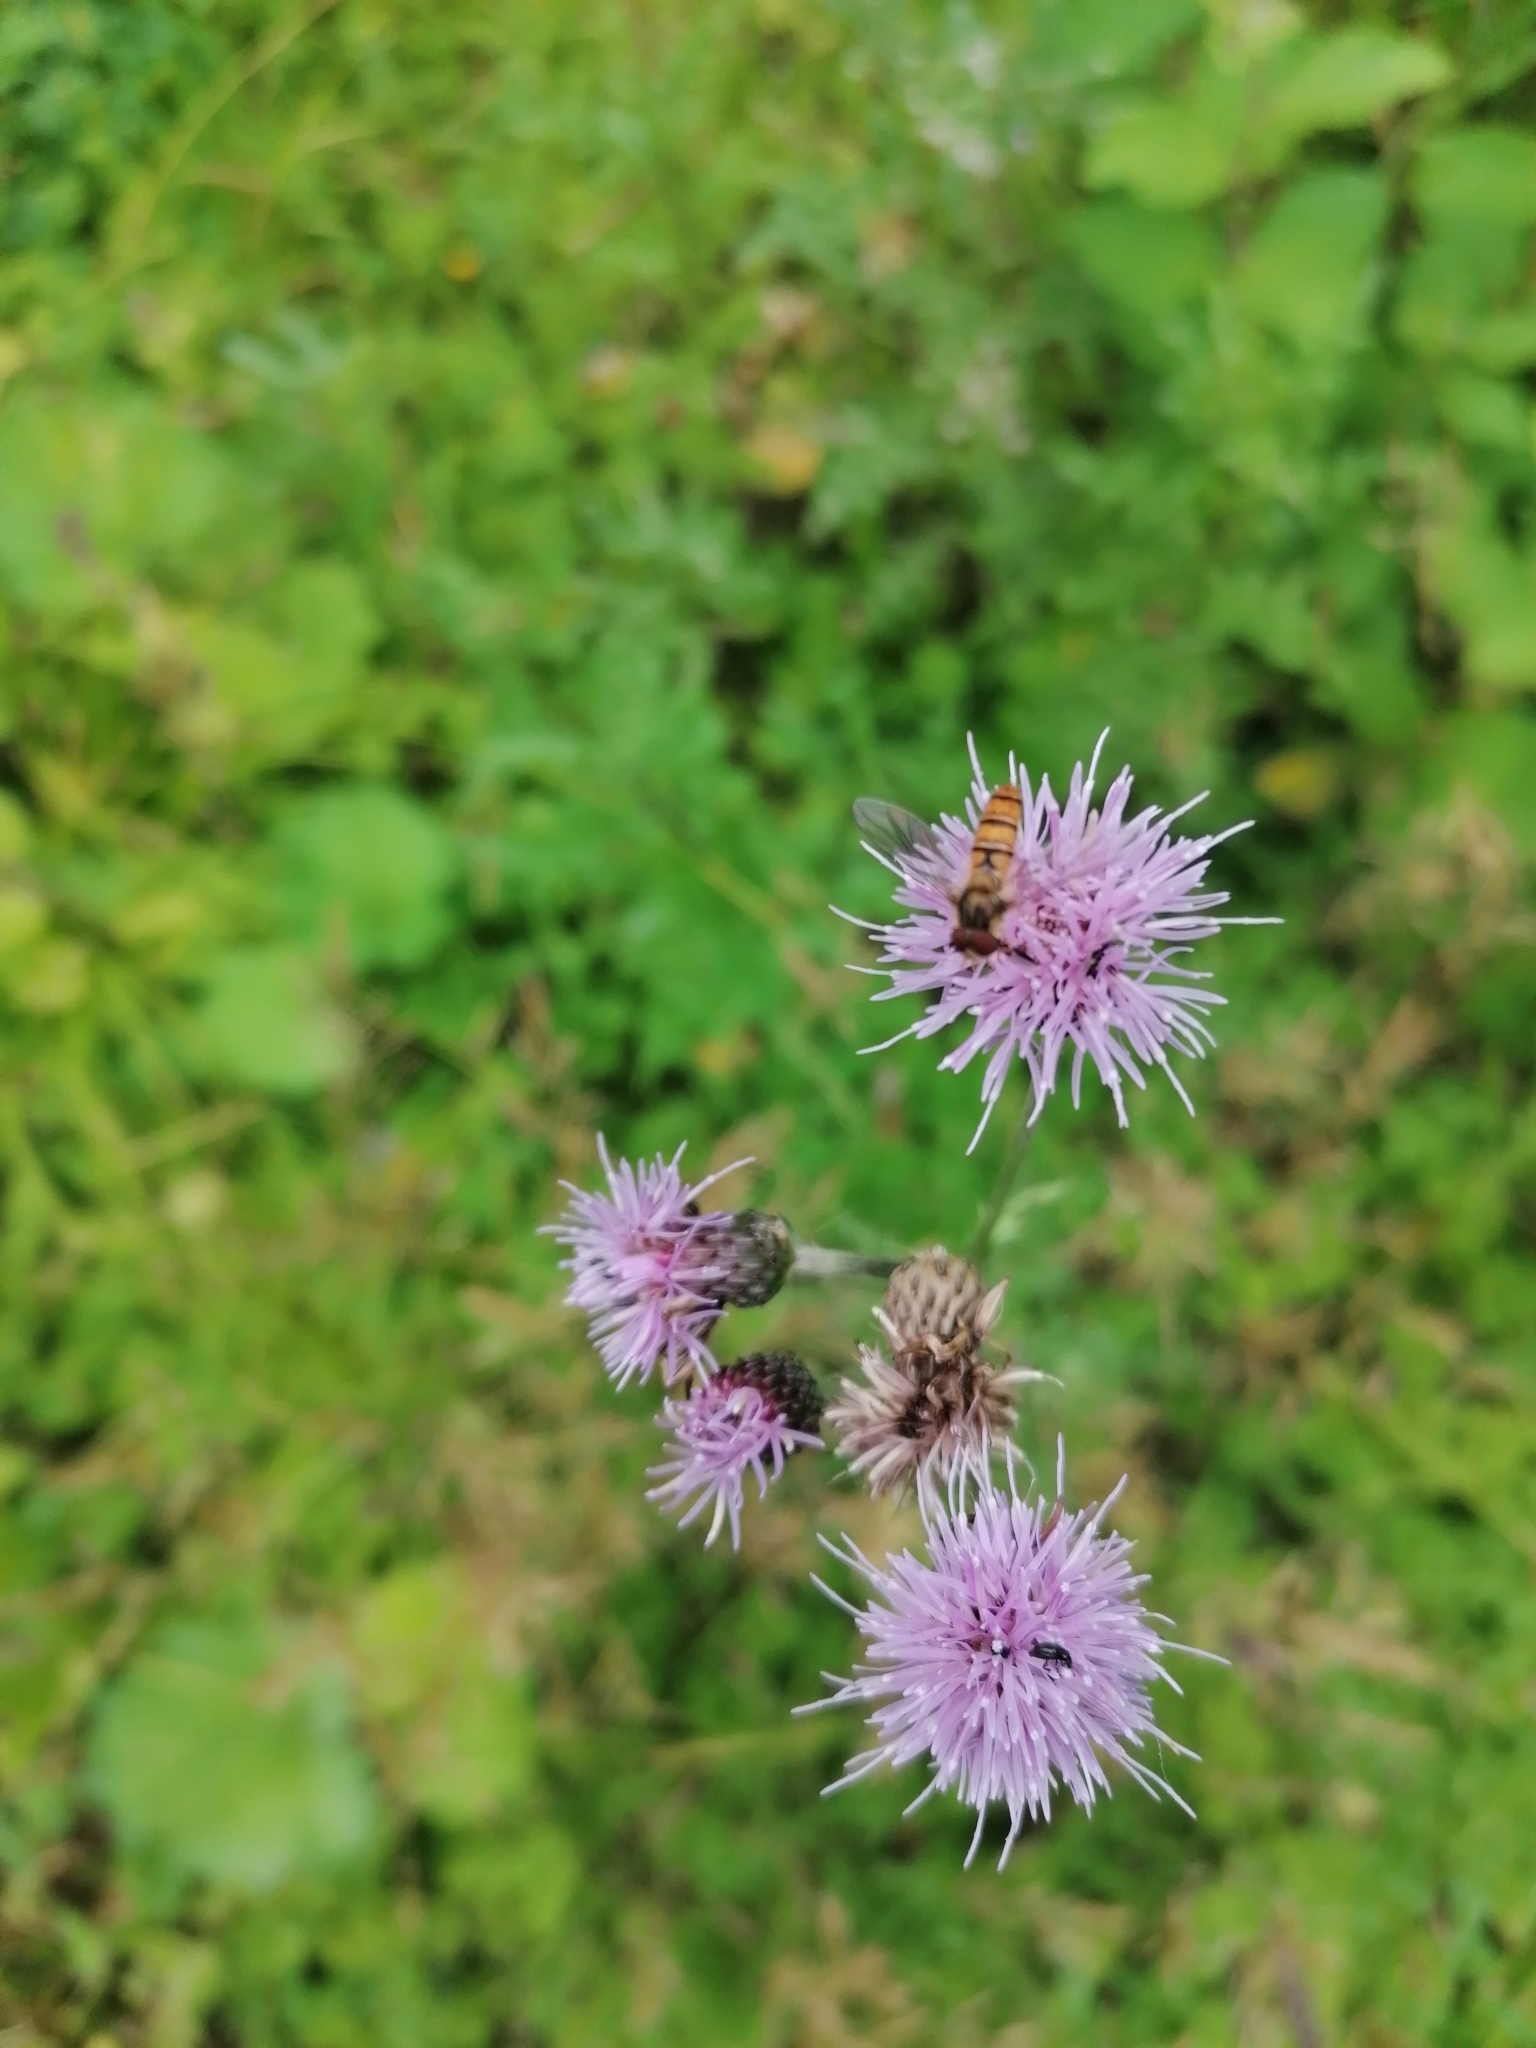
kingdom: Animalia
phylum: Arthropoda
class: Insecta
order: Diptera
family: Syrphidae
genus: Episyrphus
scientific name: Episyrphus balteatus
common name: Marmalade hoverfly
